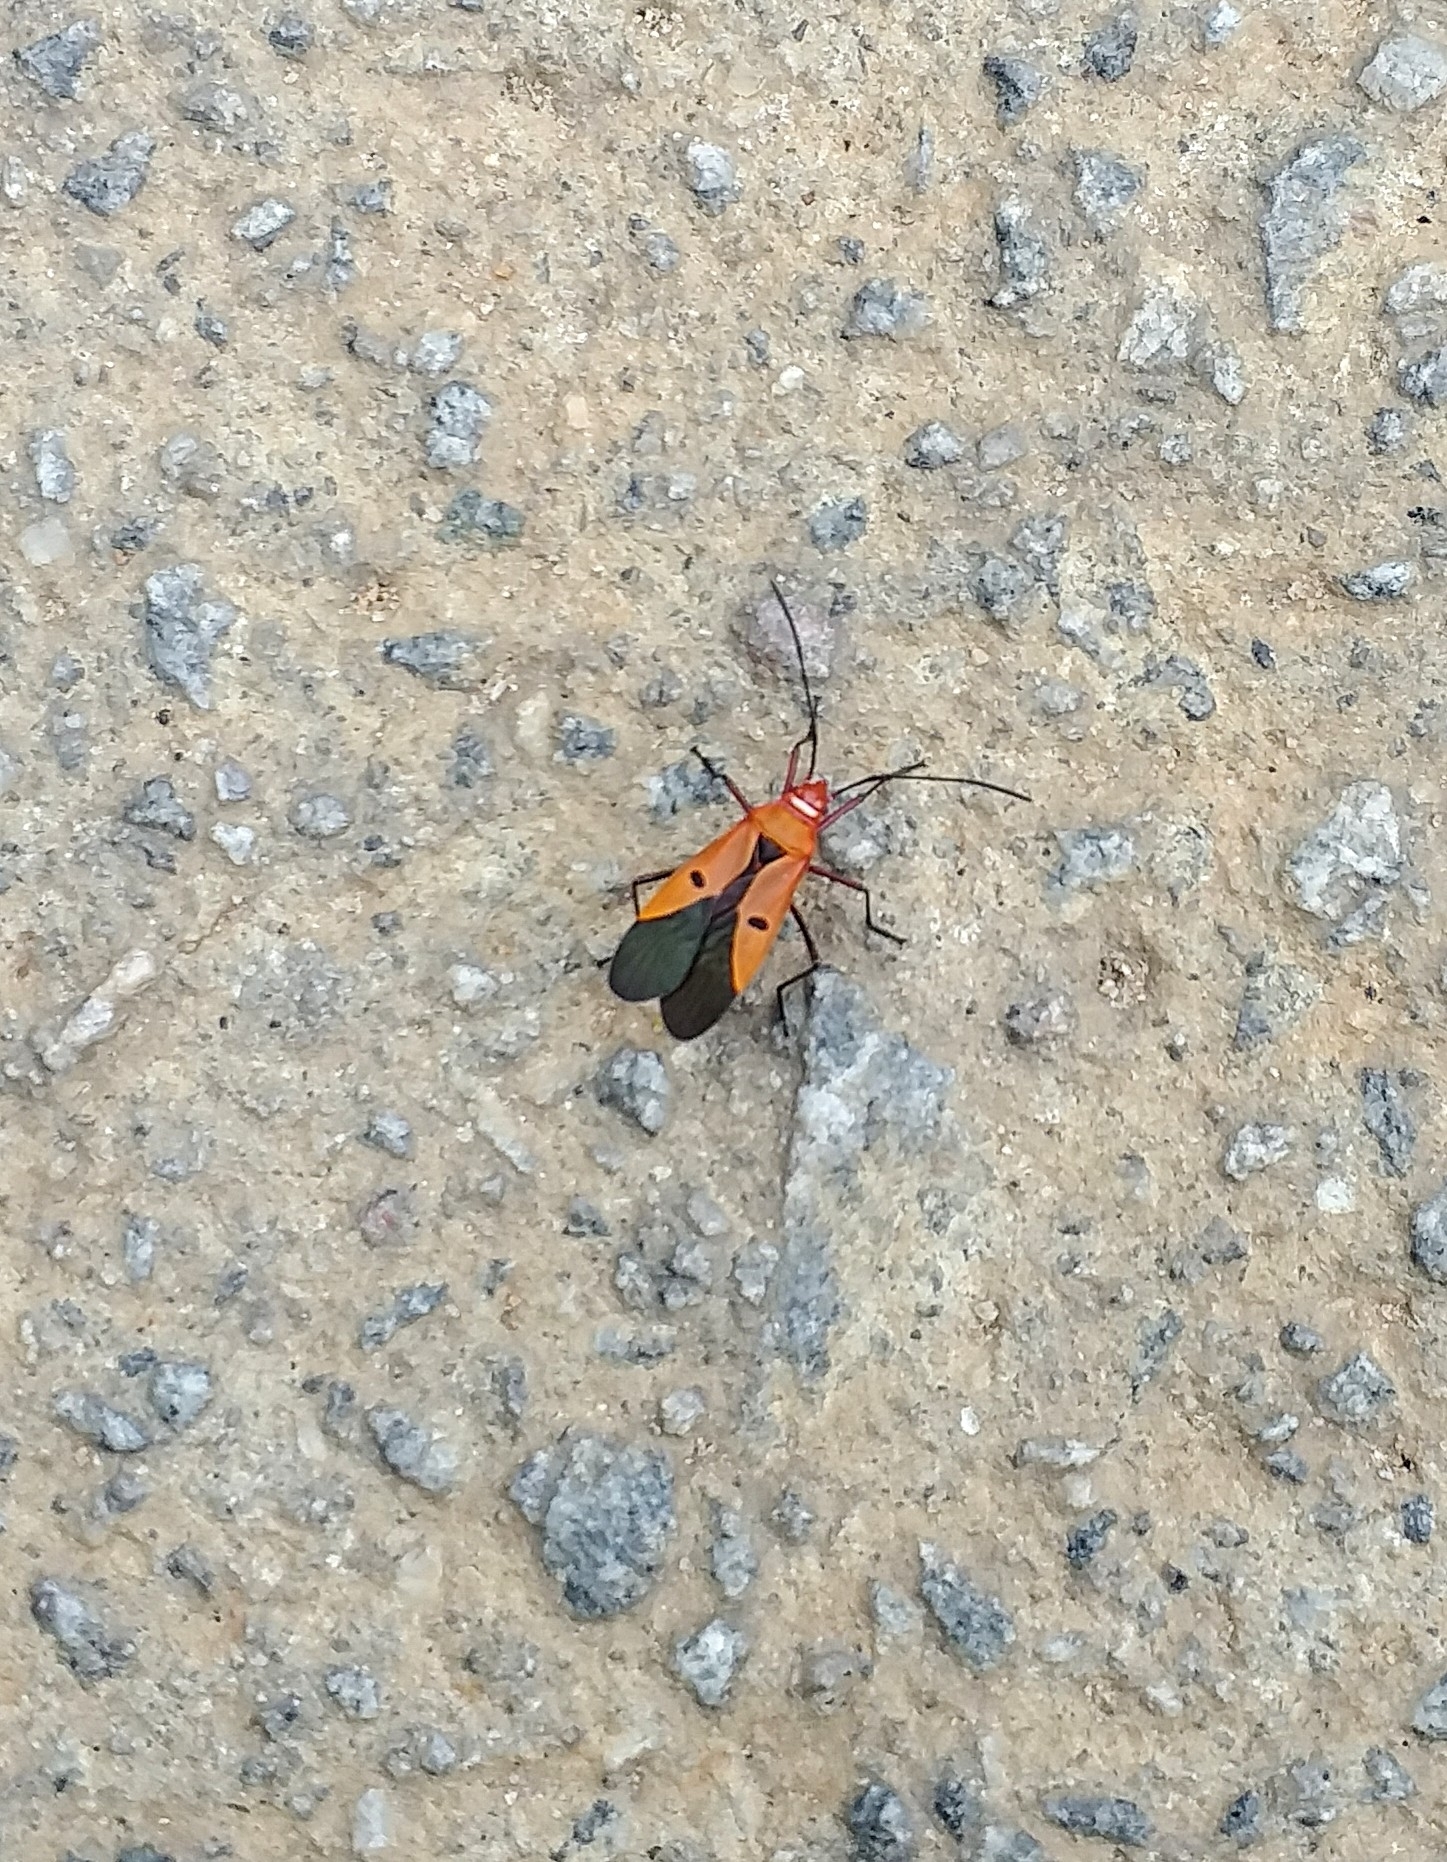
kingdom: Animalia
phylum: Arthropoda
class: Insecta
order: Hemiptera
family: Pyrrhocoridae
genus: Dysdercus
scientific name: Dysdercus koenigii
